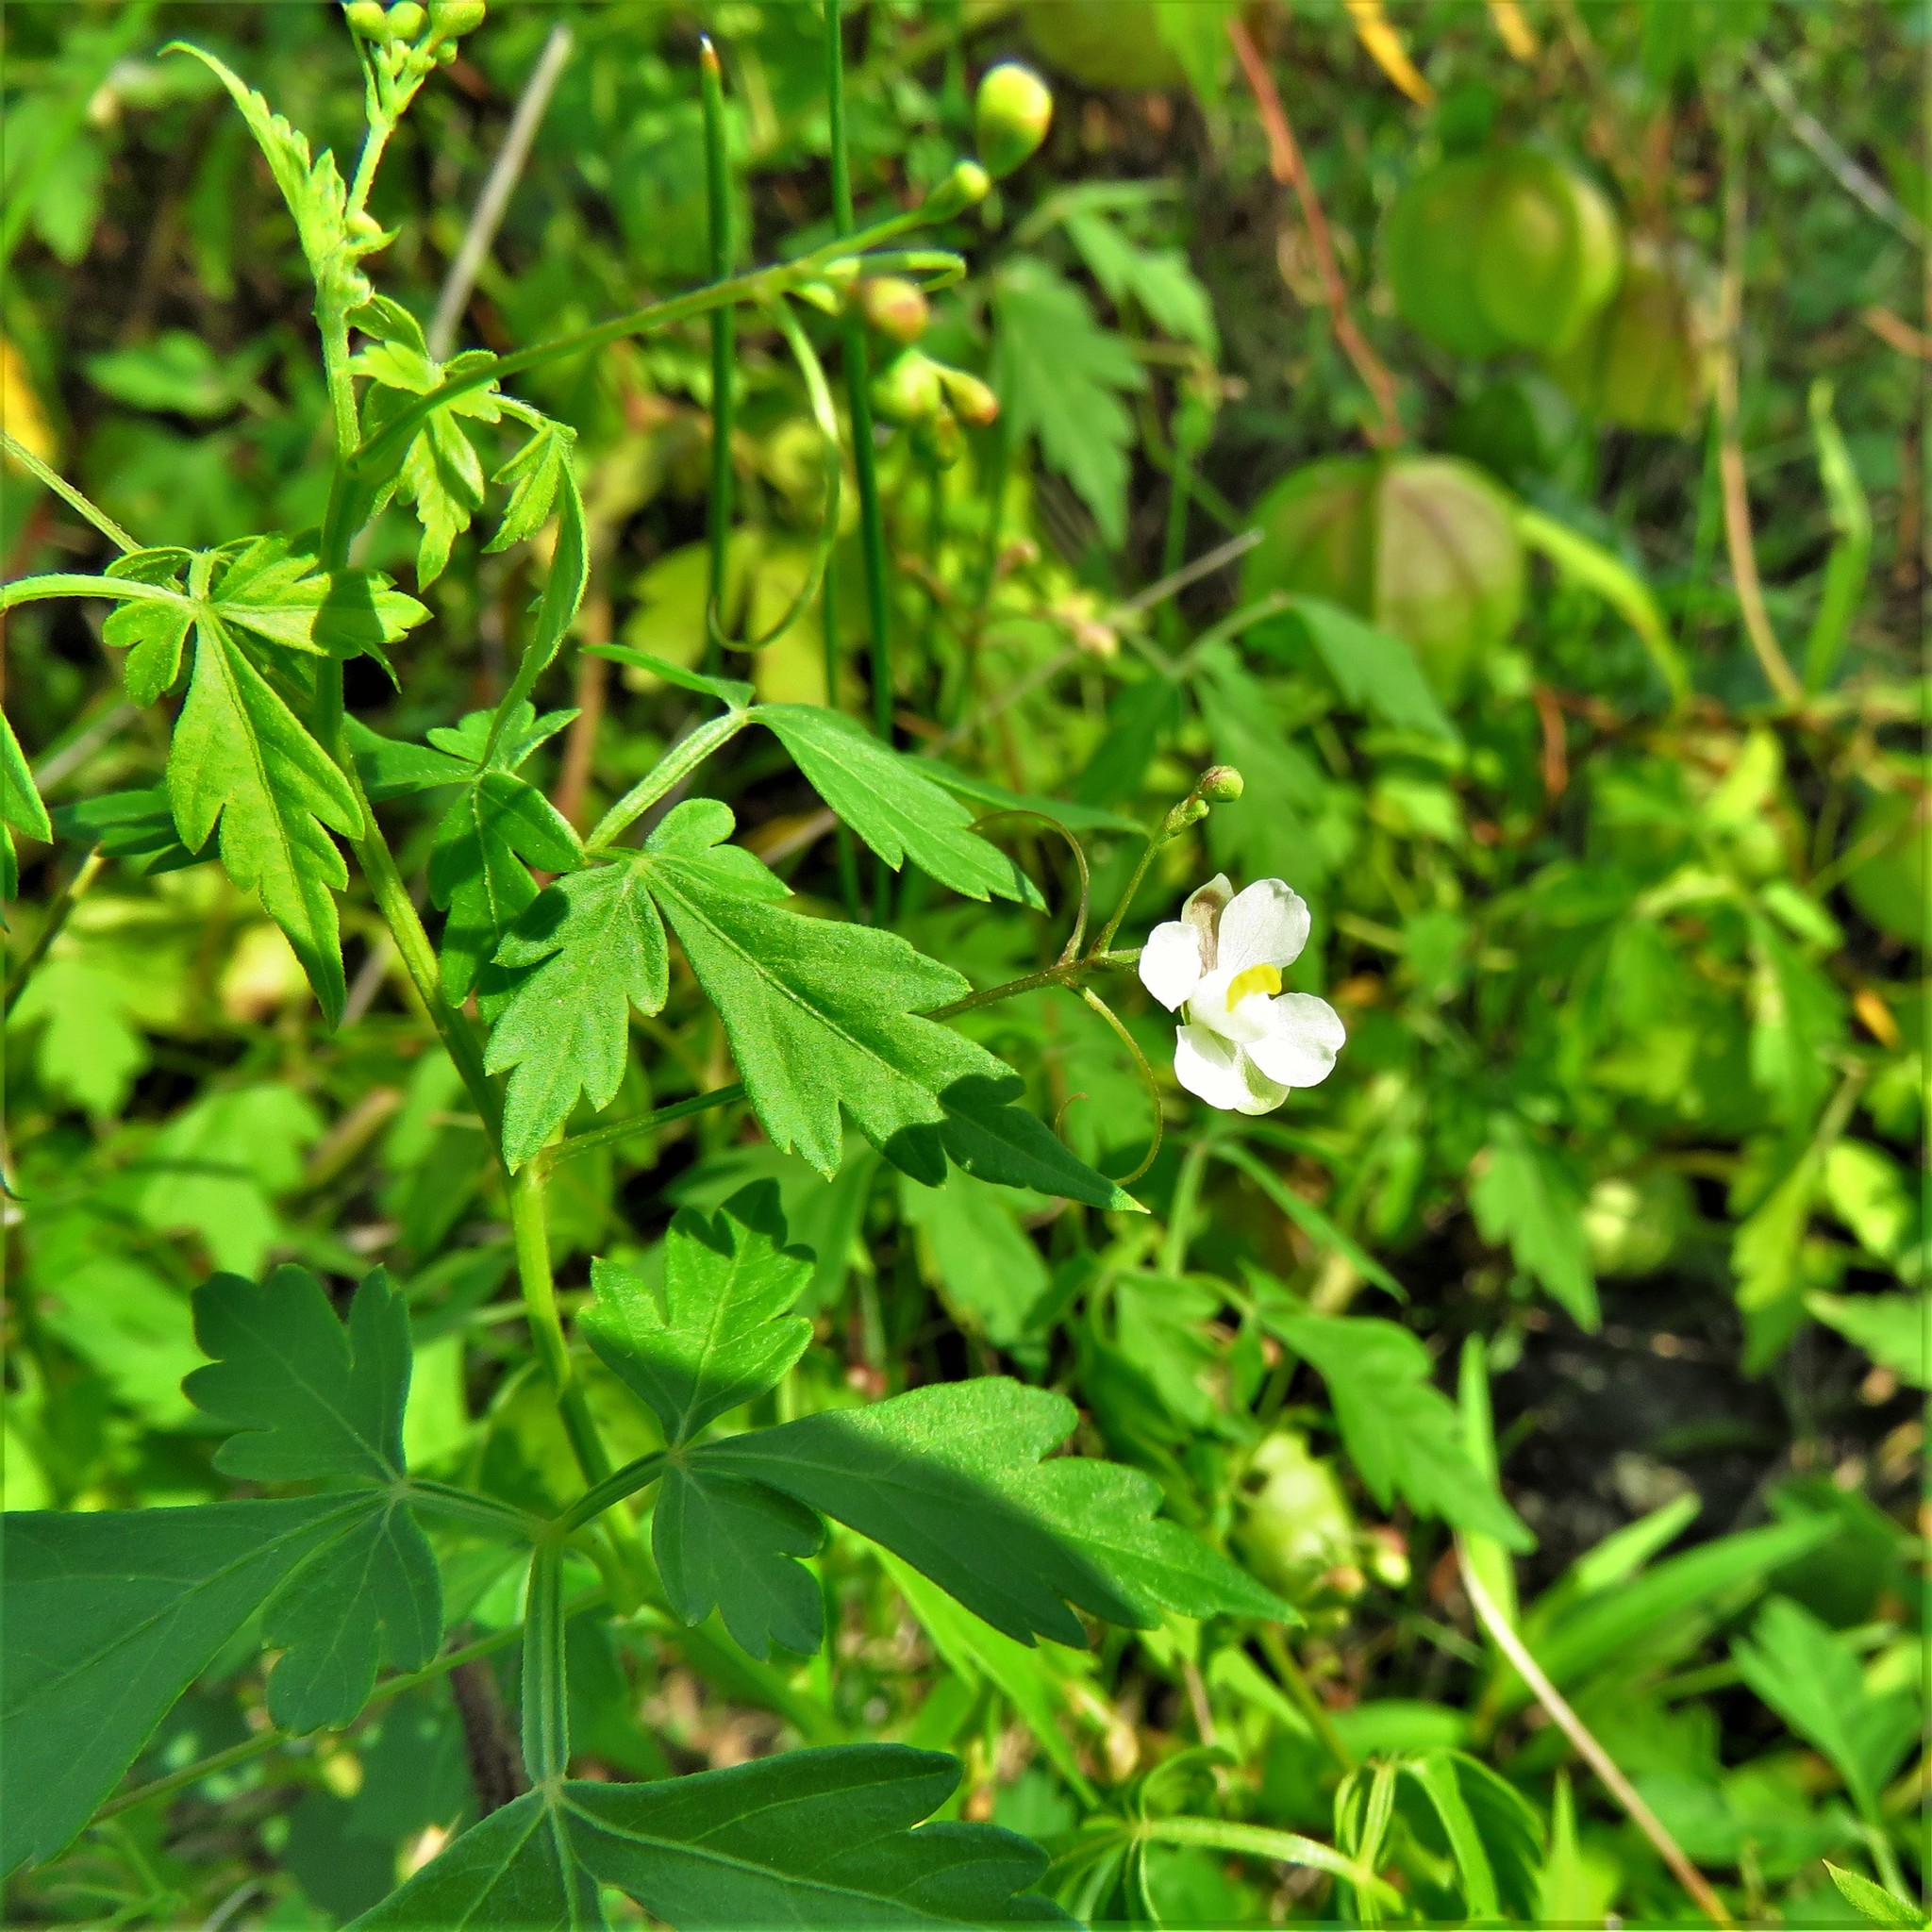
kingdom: Plantae
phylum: Tracheophyta
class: Magnoliopsida
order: Sapindales
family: Sapindaceae
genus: Cardiospermum
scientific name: Cardiospermum halicacabum
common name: Balloon vine
